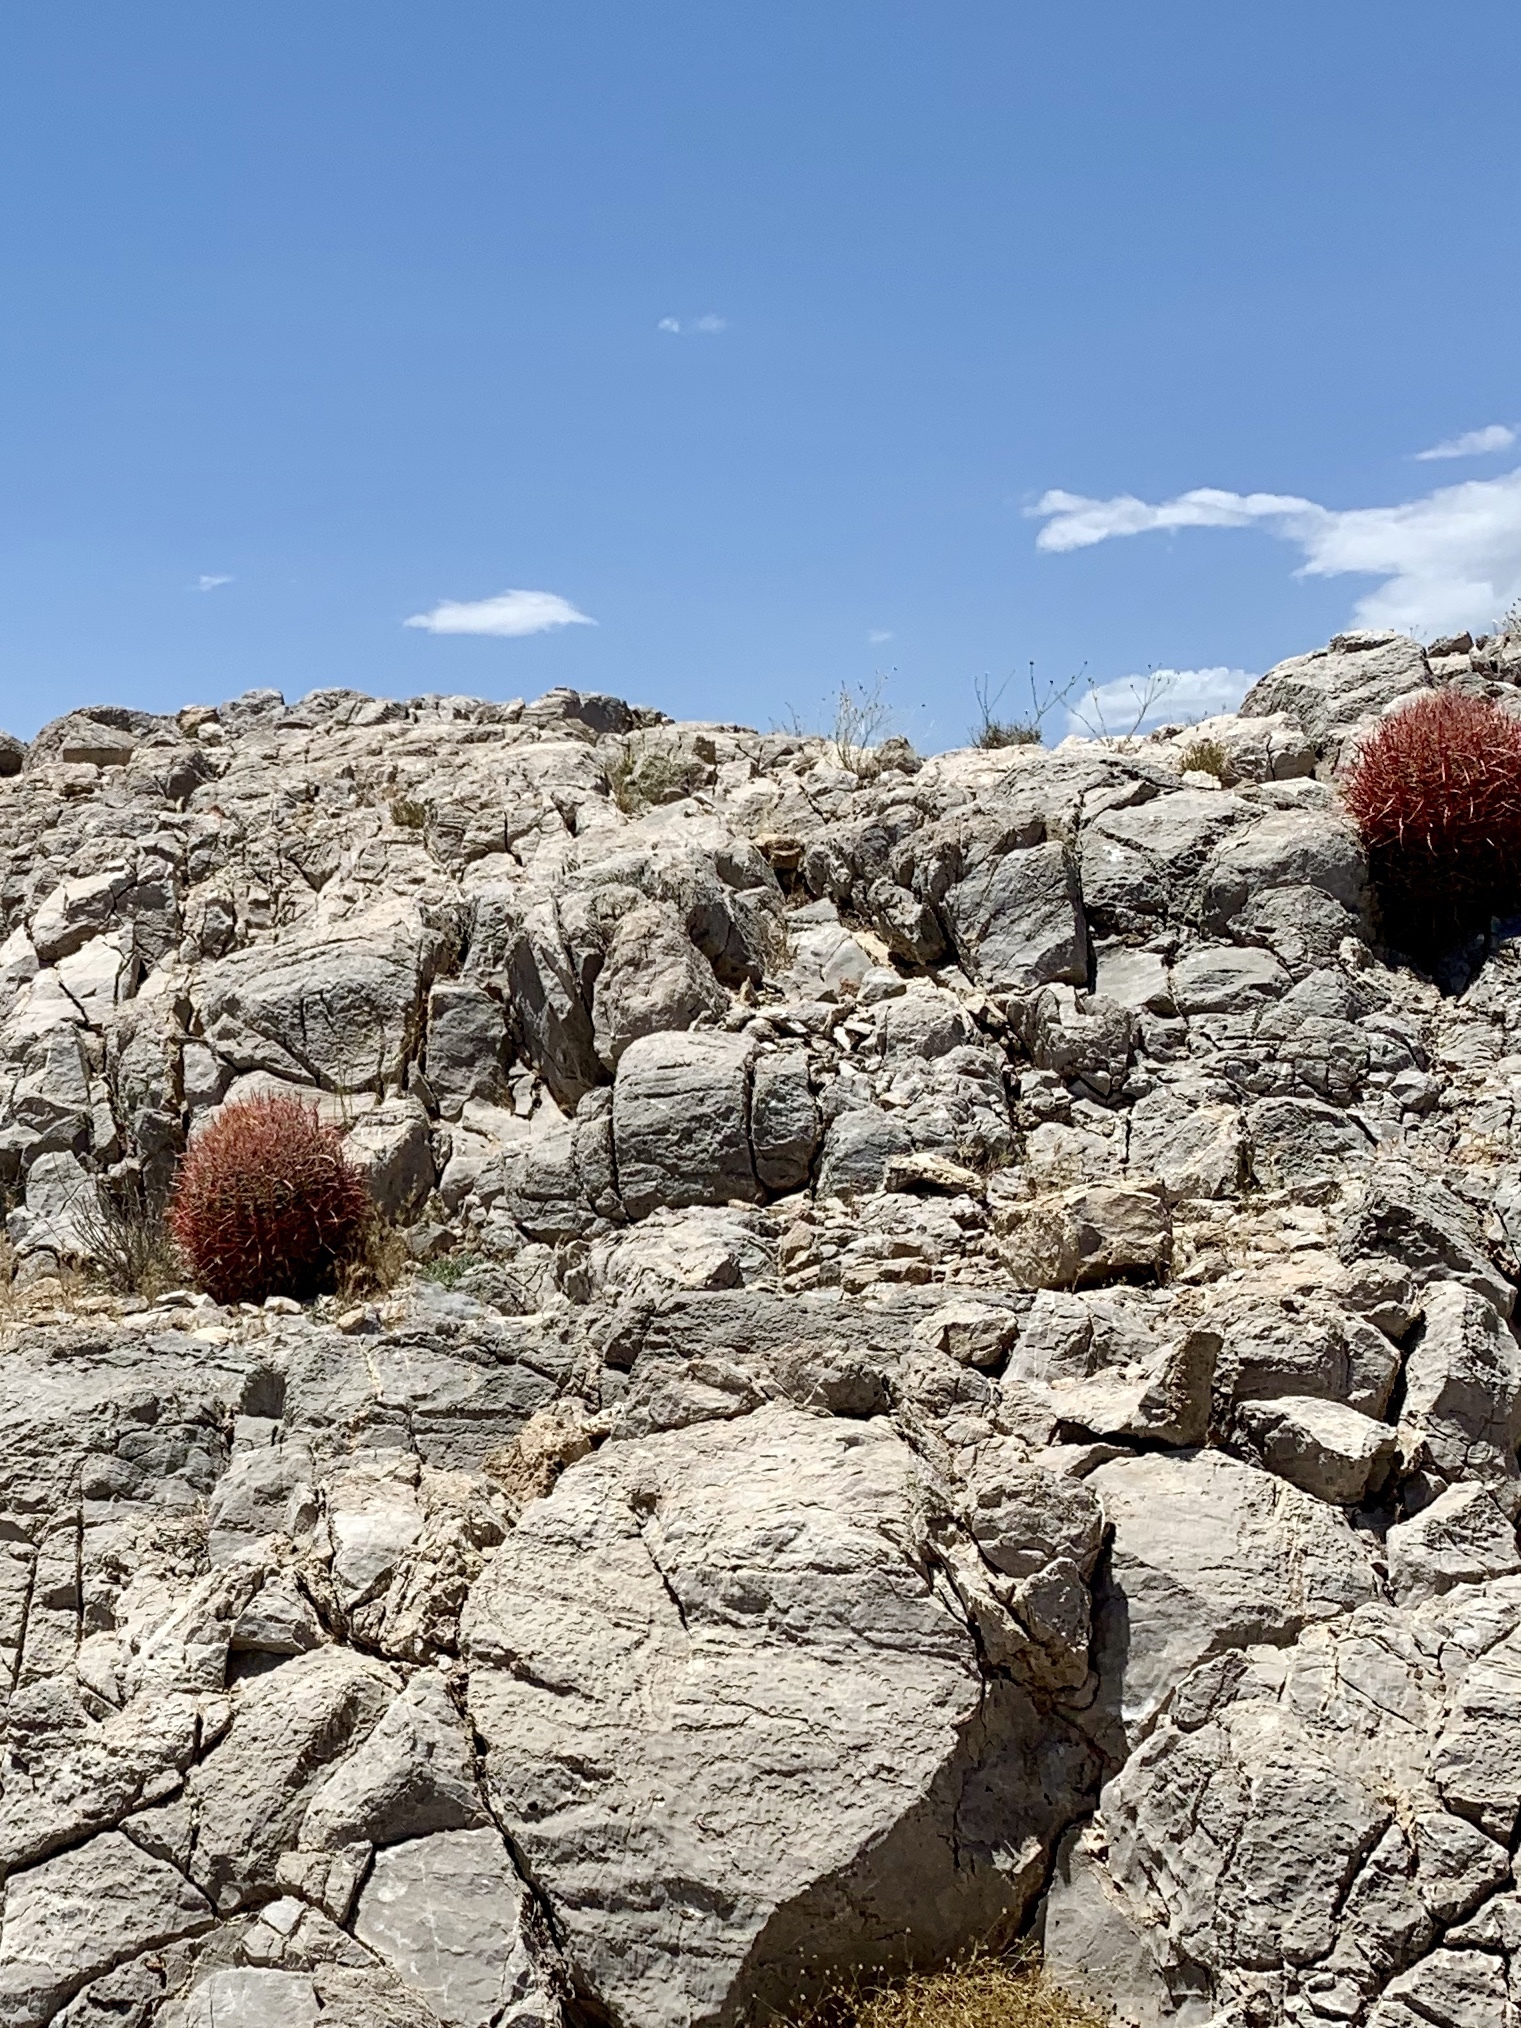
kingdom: Plantae
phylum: Tracheophyta
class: Magnoliopsida
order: Caryophyllales
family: Cactaceae
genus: Ferocactus
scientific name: Ferocactus cylindraceus
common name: California barrel cactus
